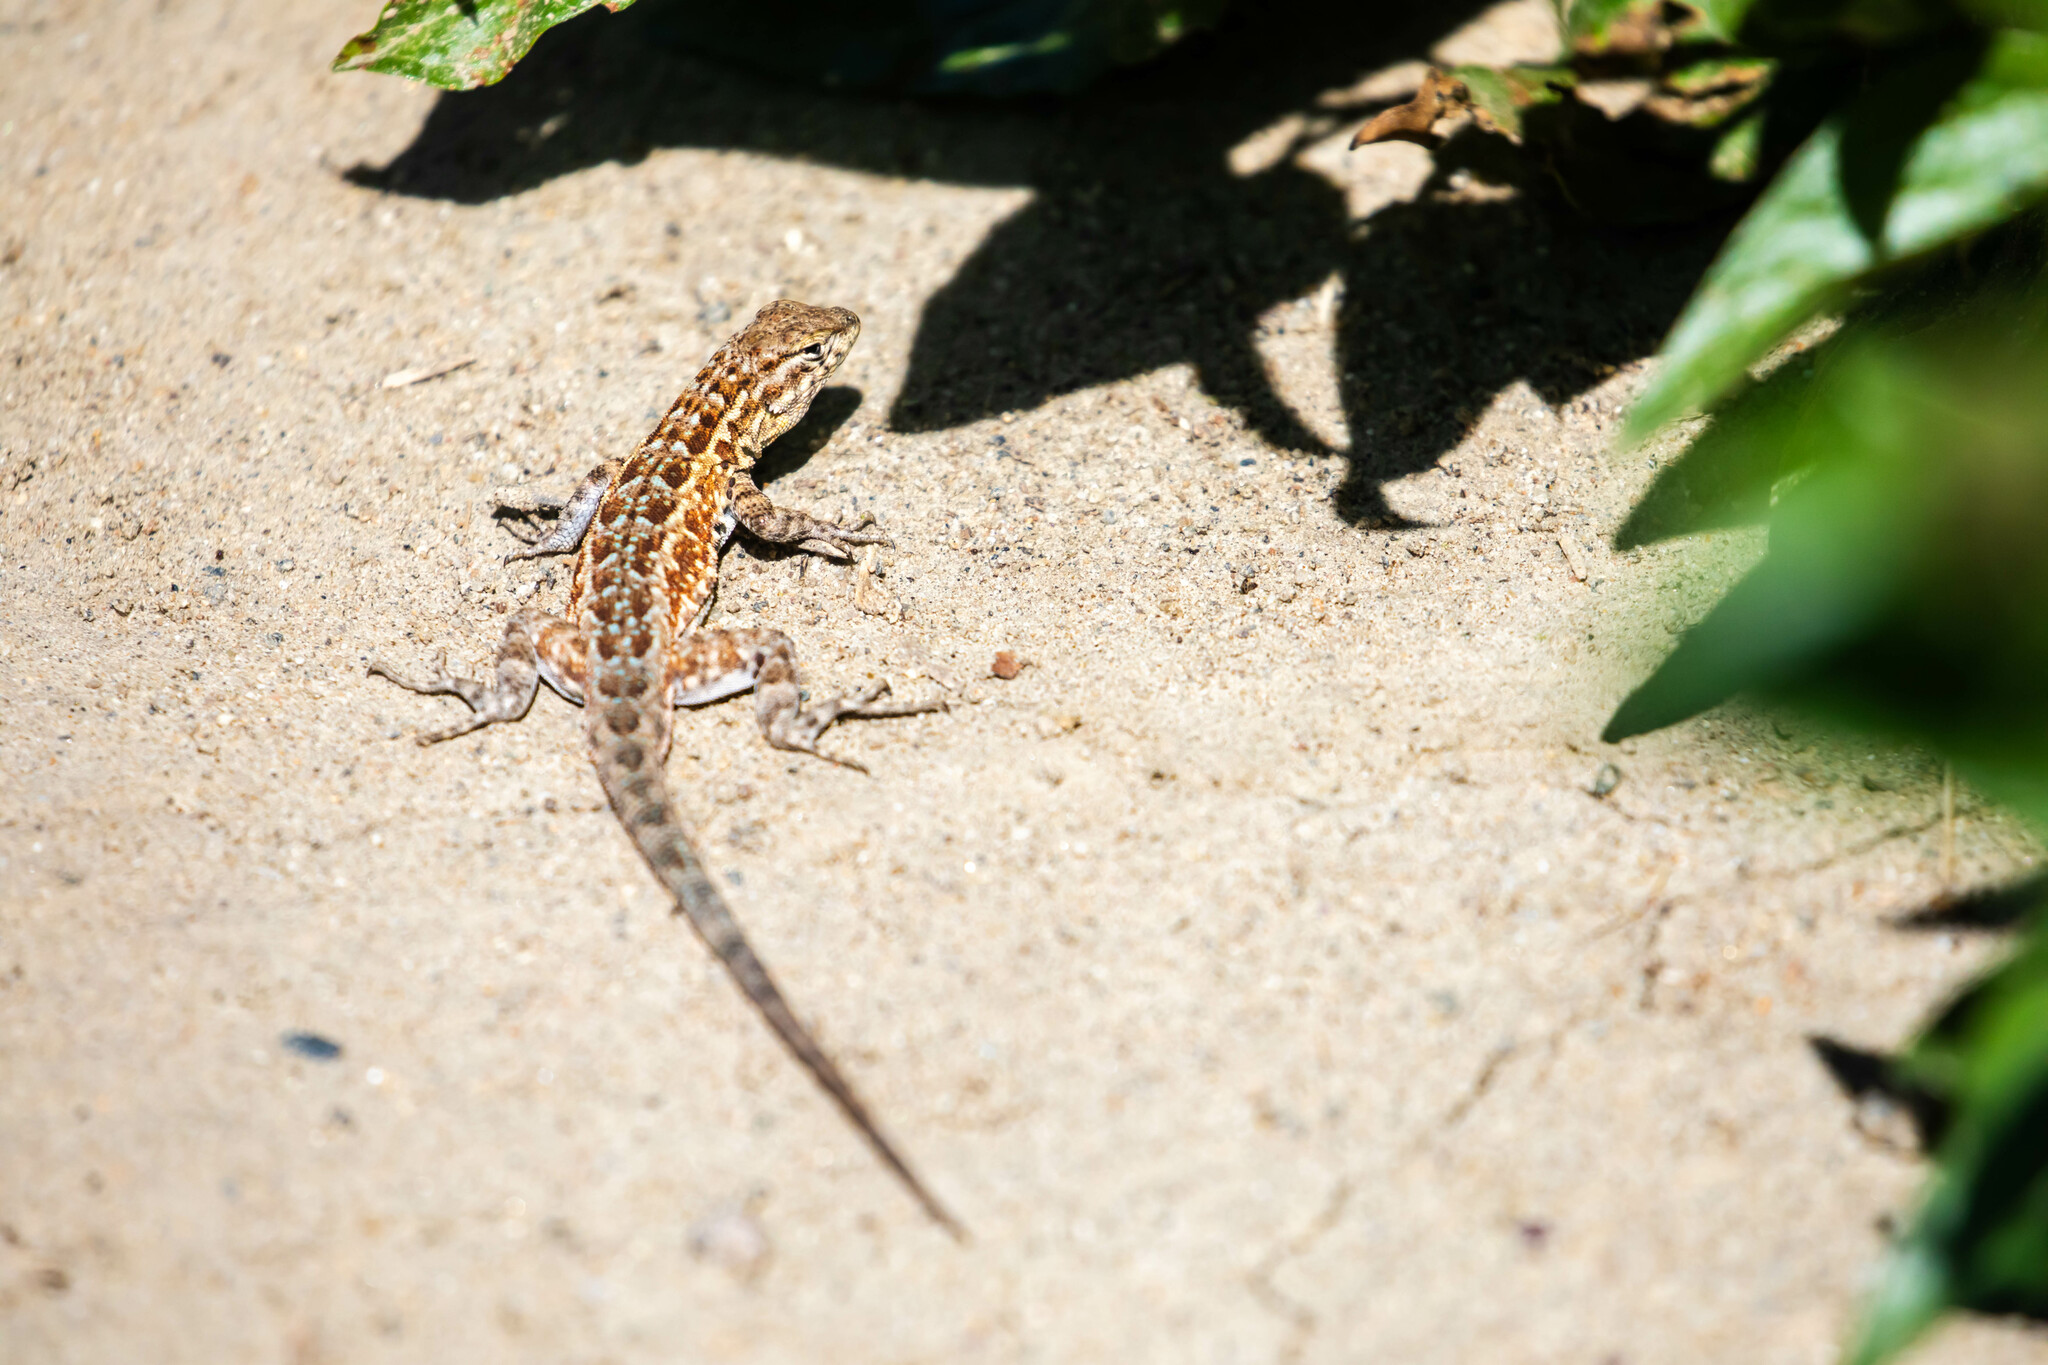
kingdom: Animalia
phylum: Chordata
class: Squamata
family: Phrynosomatidae
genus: Uta
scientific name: Uta stansburiana
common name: Side-blotched lizard
